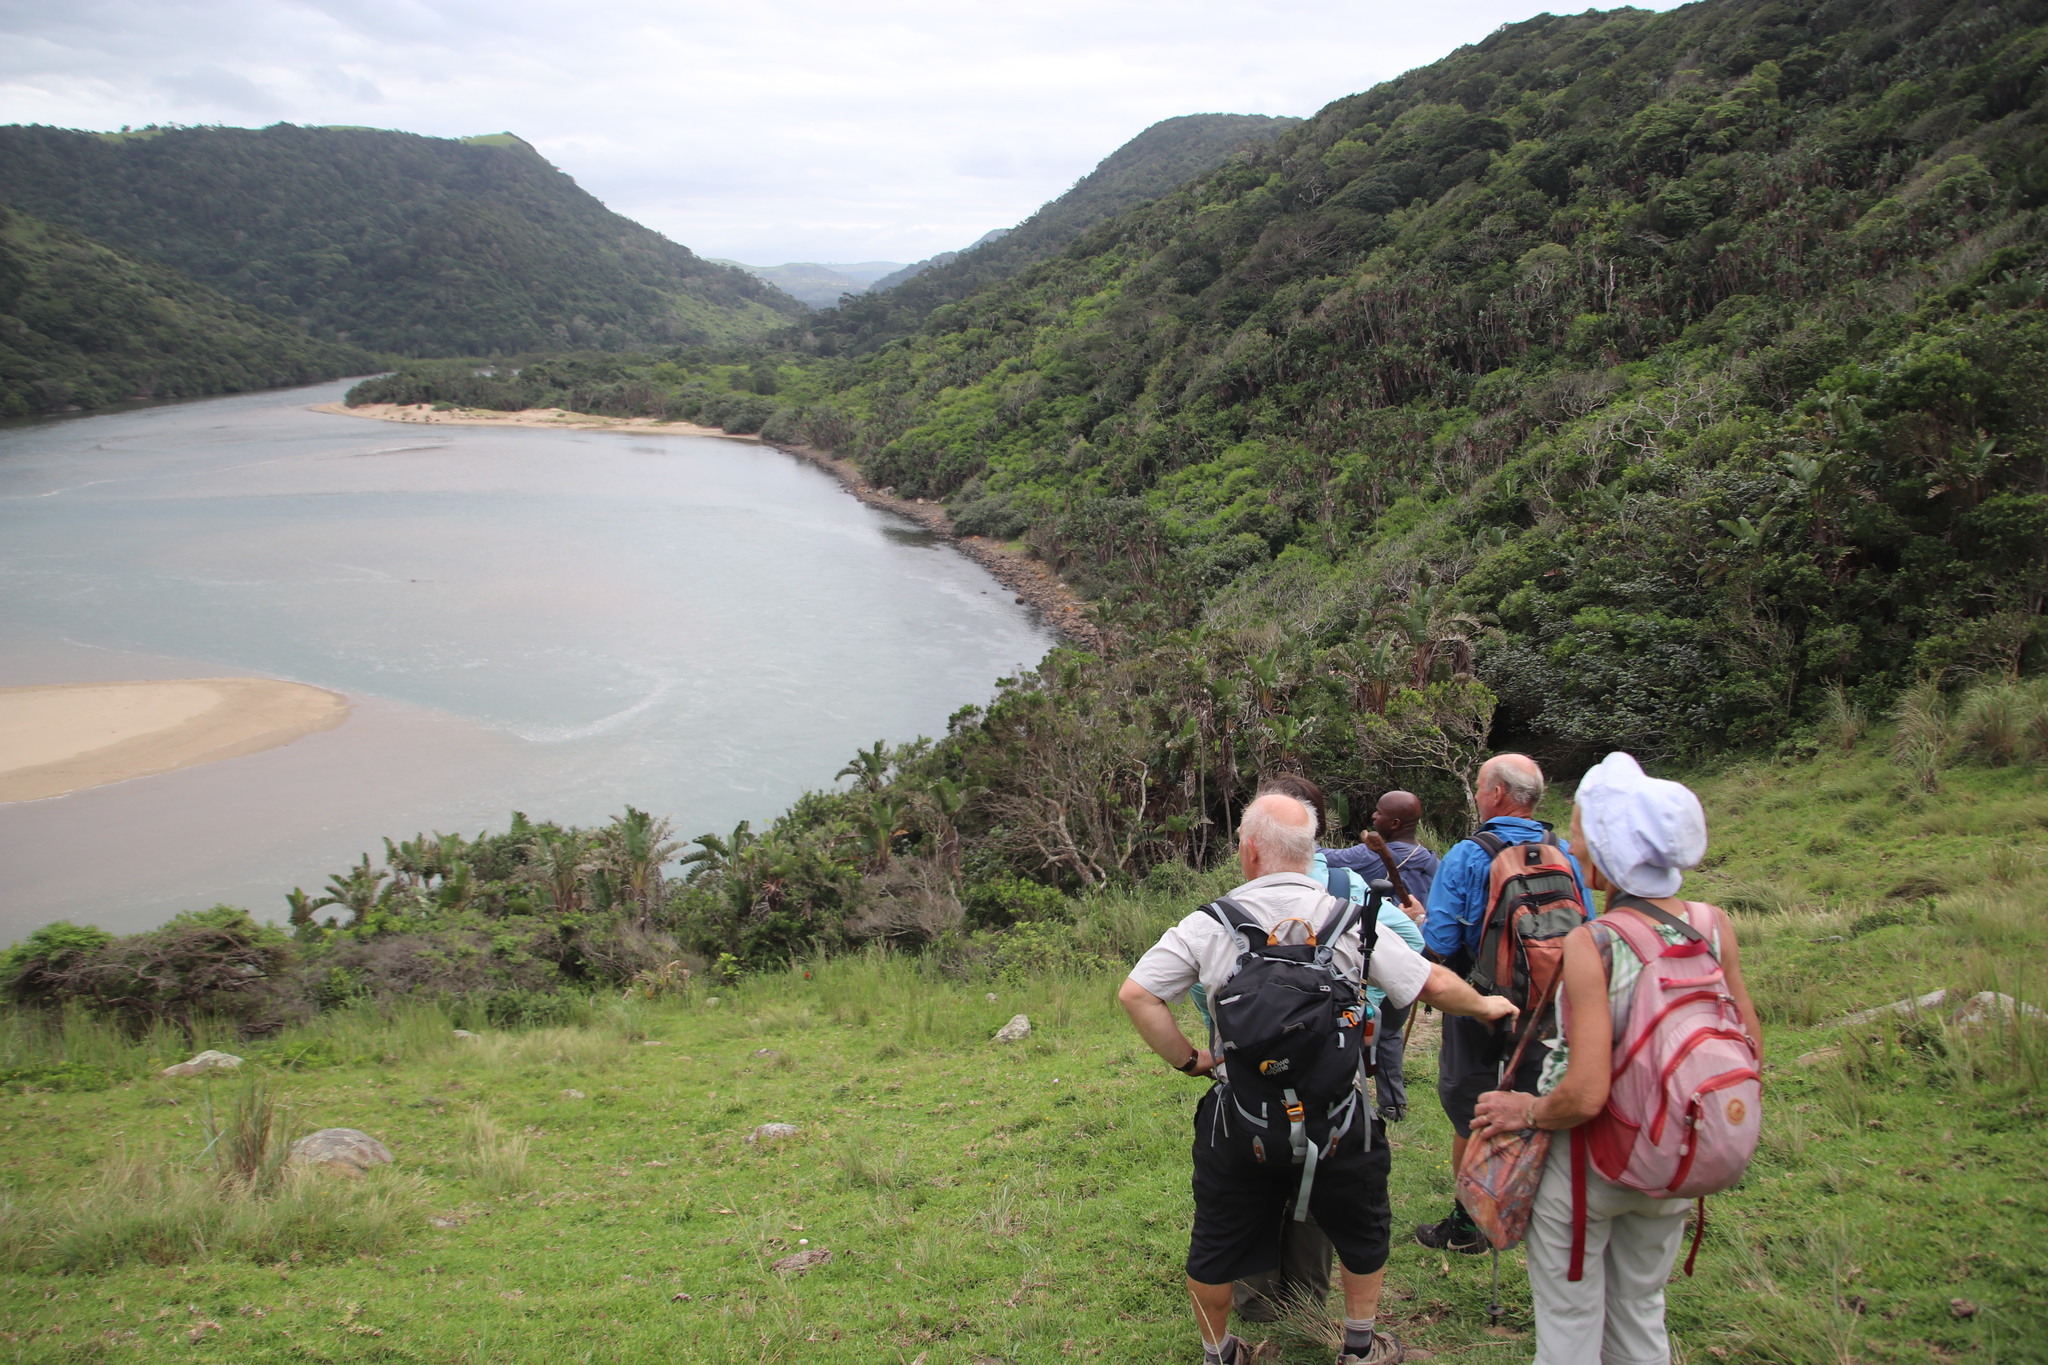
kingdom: Plantae
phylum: Tracheophyta
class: Liliopsida
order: Zingiberales
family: Strelitziaceae
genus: Strelitzia
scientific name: Strelitzia nicolai
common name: Bird-of-paradise tree
